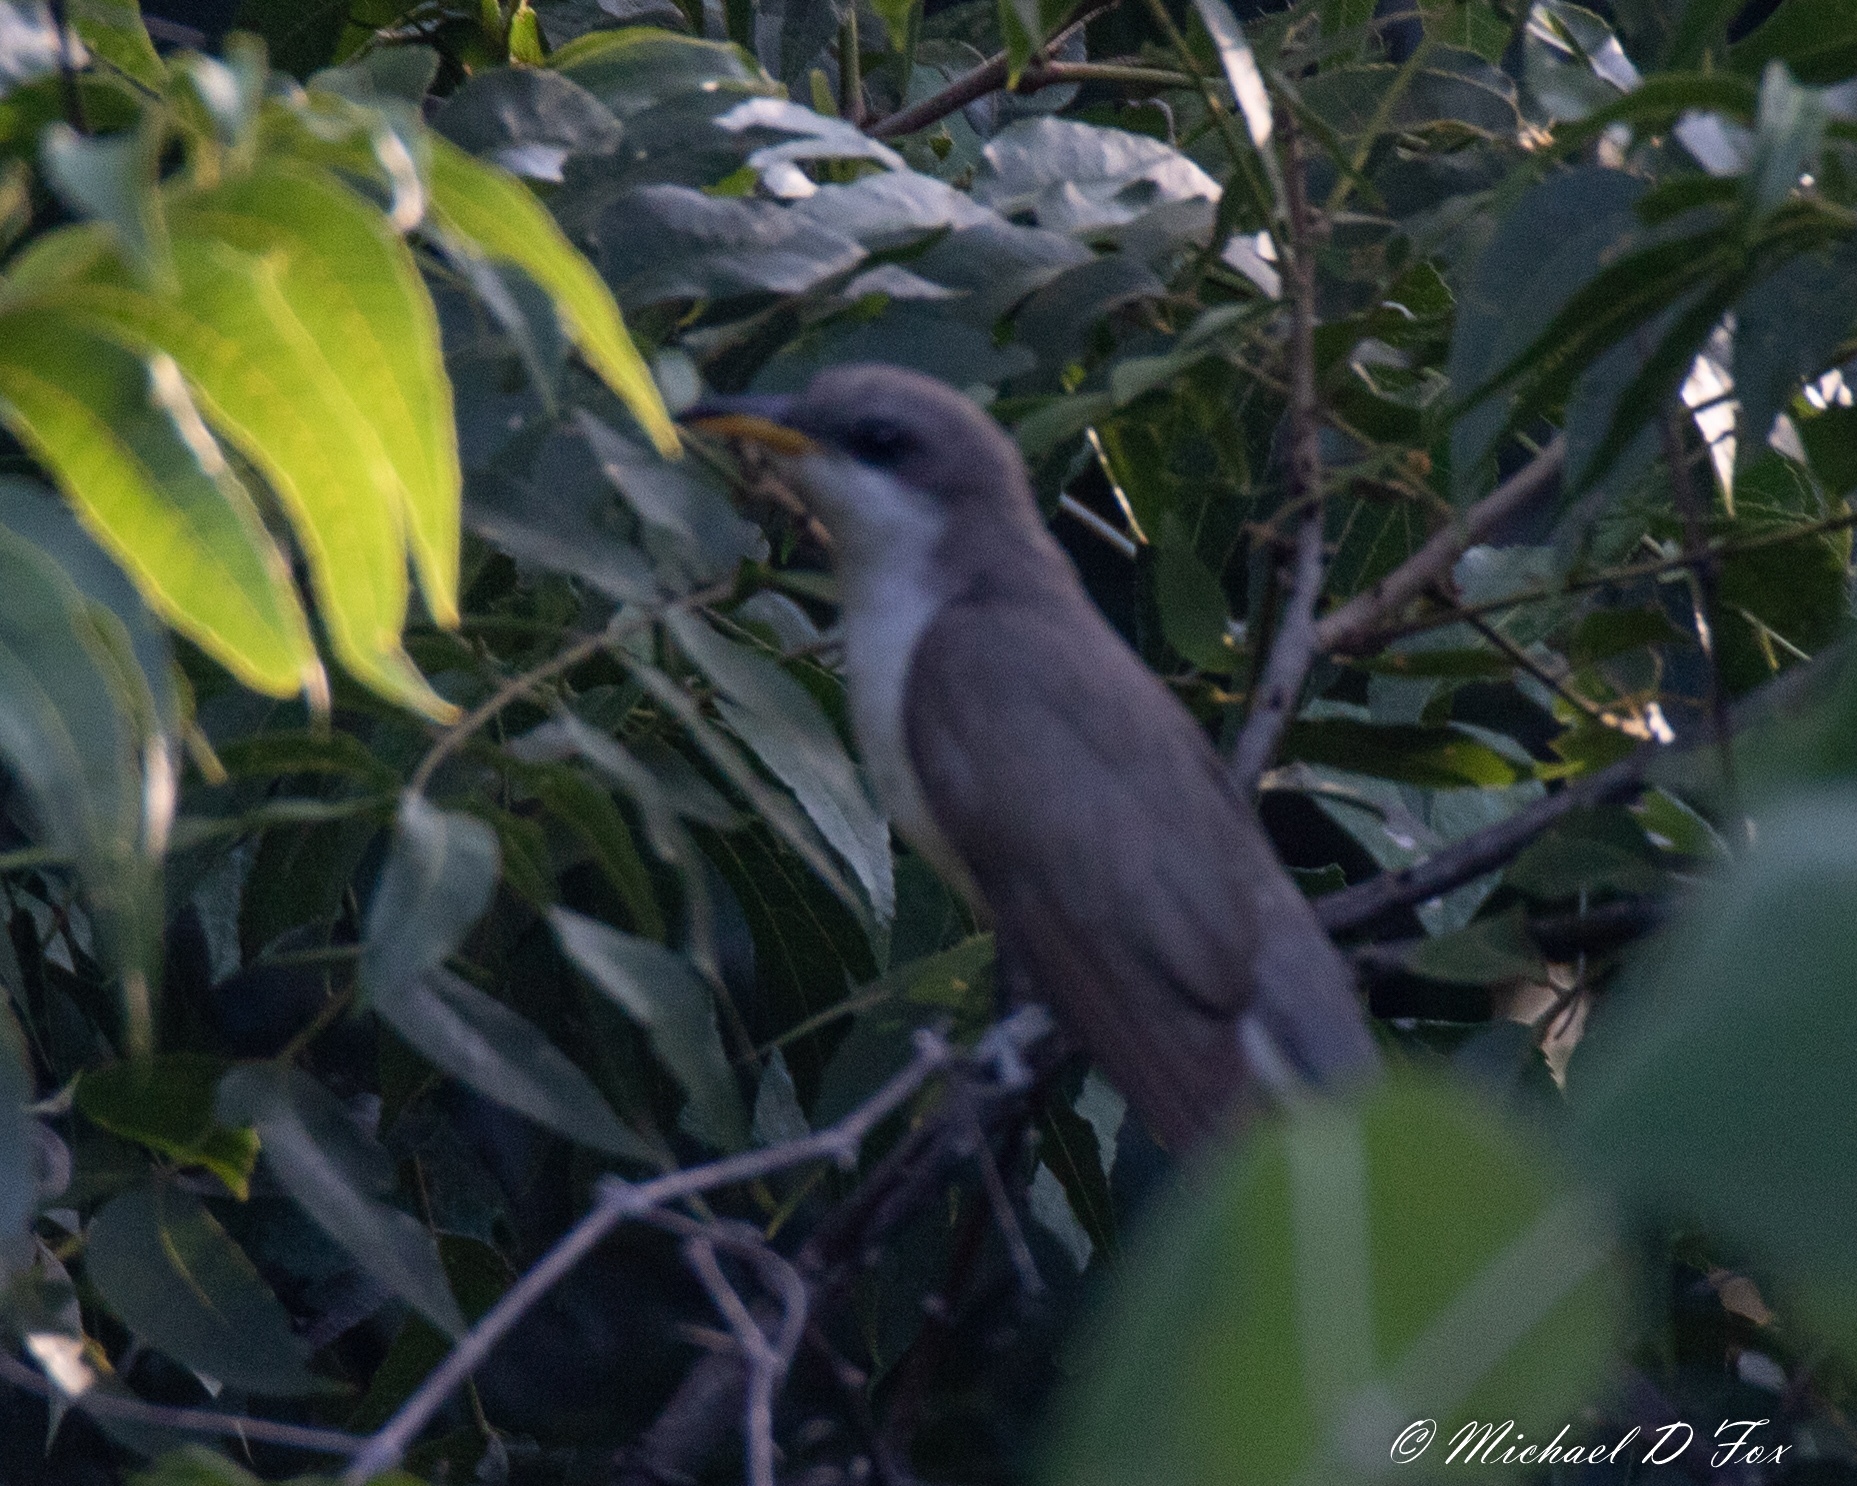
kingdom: Animalia
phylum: Chordata
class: Aves
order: Cuculiformes
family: Cuculidae
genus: Coccyzus
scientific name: Coccyzus americanus
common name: Yellow-billed cuckoo
